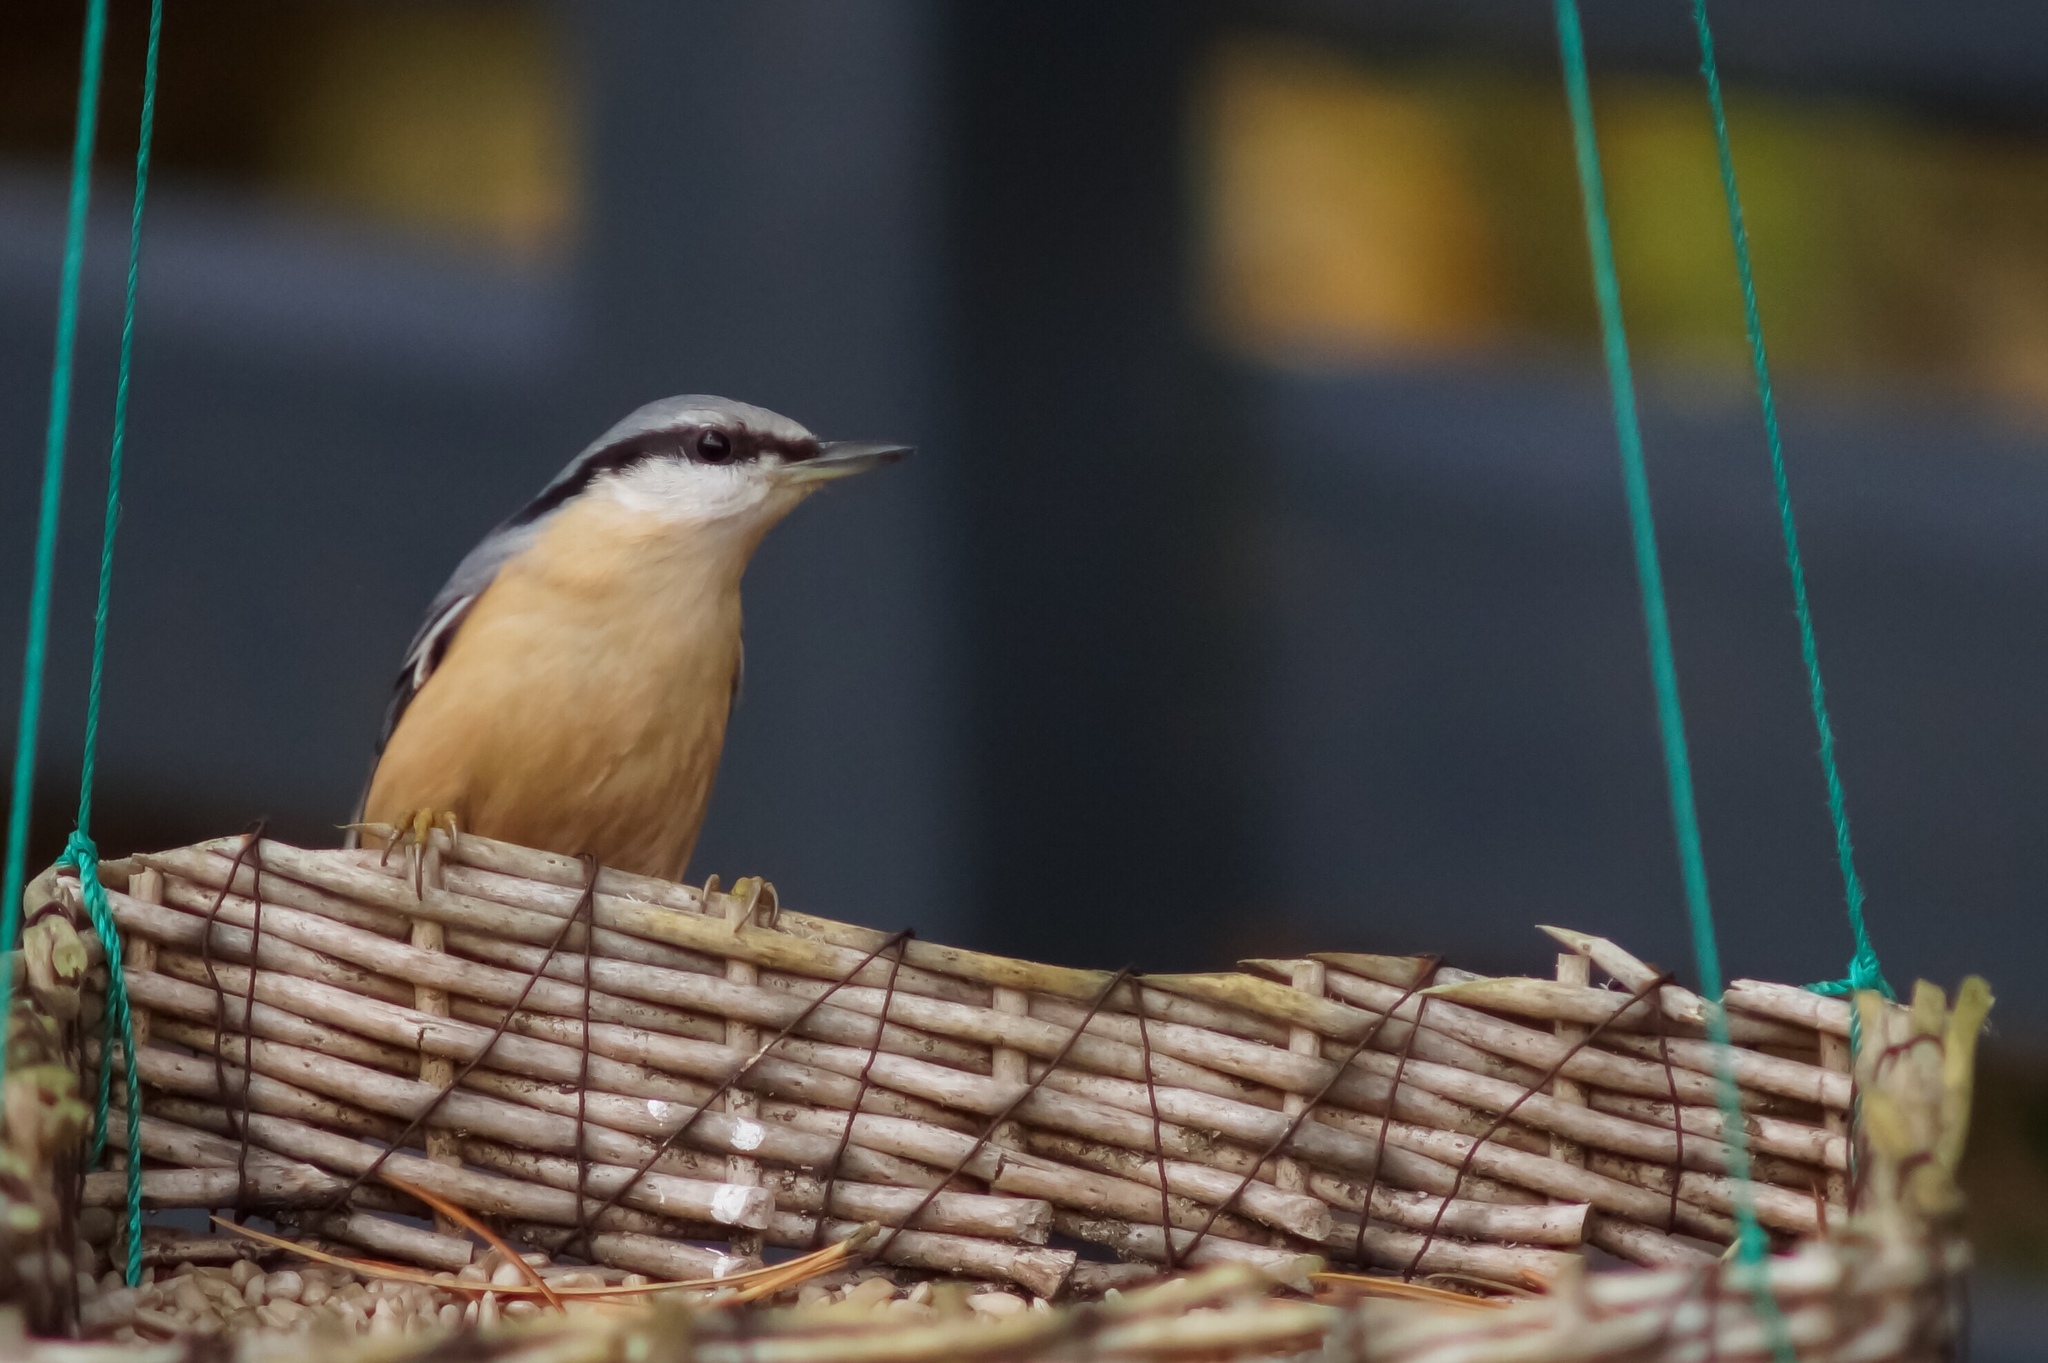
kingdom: Animalia
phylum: Chordata
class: Aves
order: Passeriformes
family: Sittidae
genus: Sitta
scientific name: Sitta europaea
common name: Eurasian nuthatch
